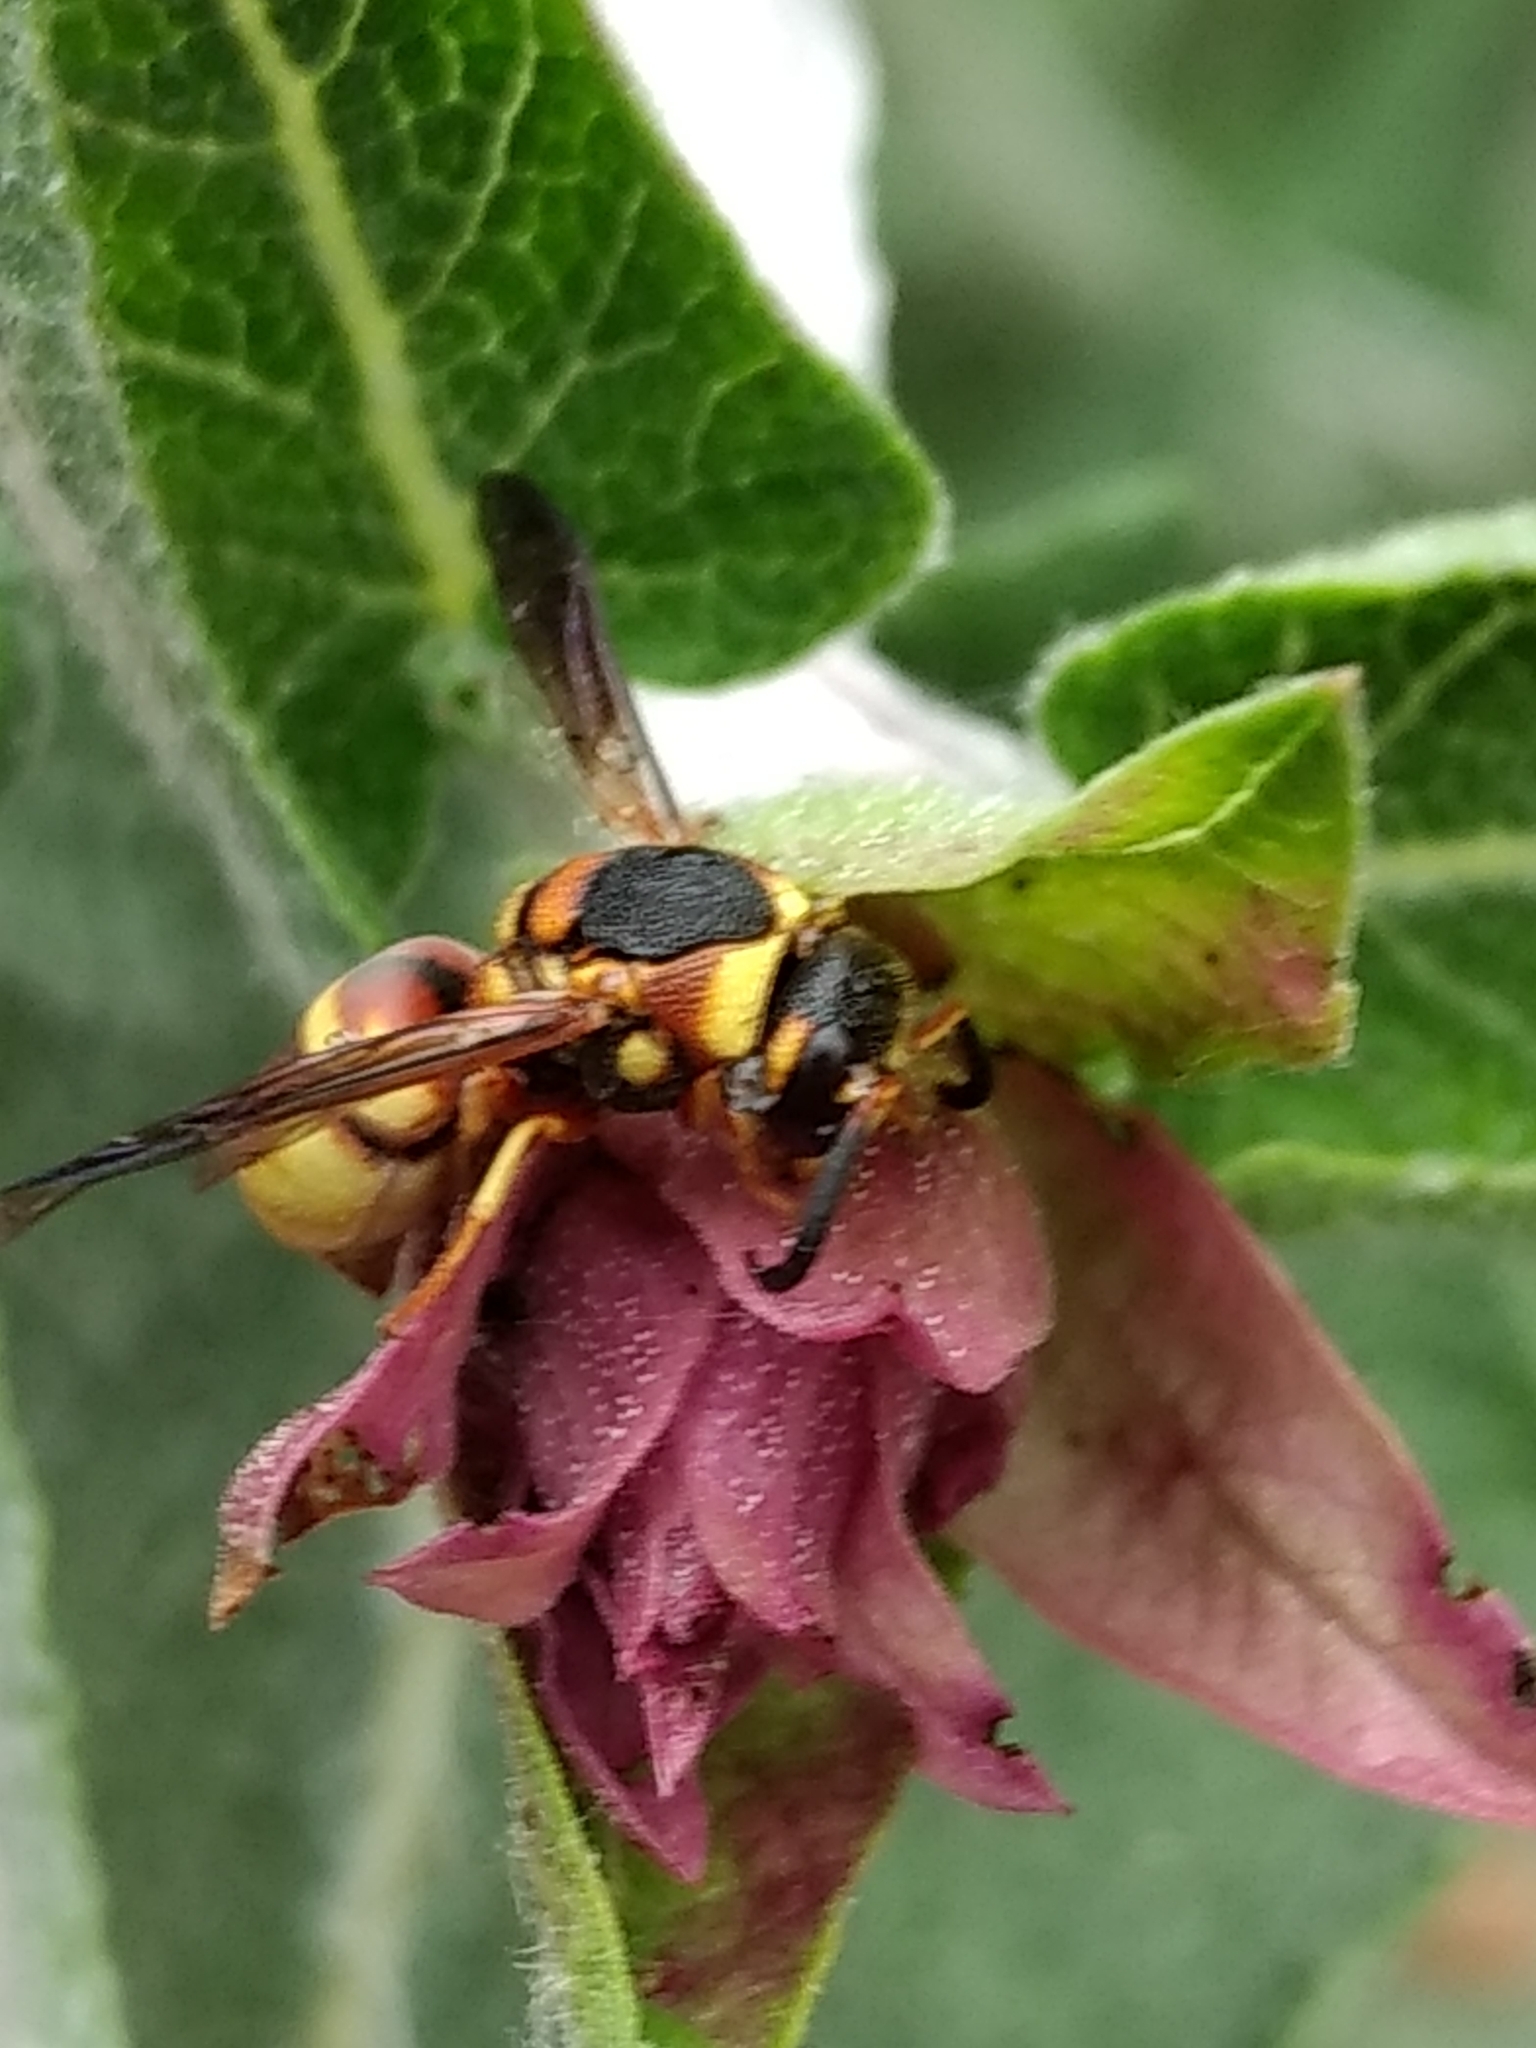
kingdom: Animalia
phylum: Arthropoda
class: Insecta
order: Hymenoptera
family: Eumenidae
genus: Euodynerus
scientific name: Euodynerus hidalgo
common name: Wasp
